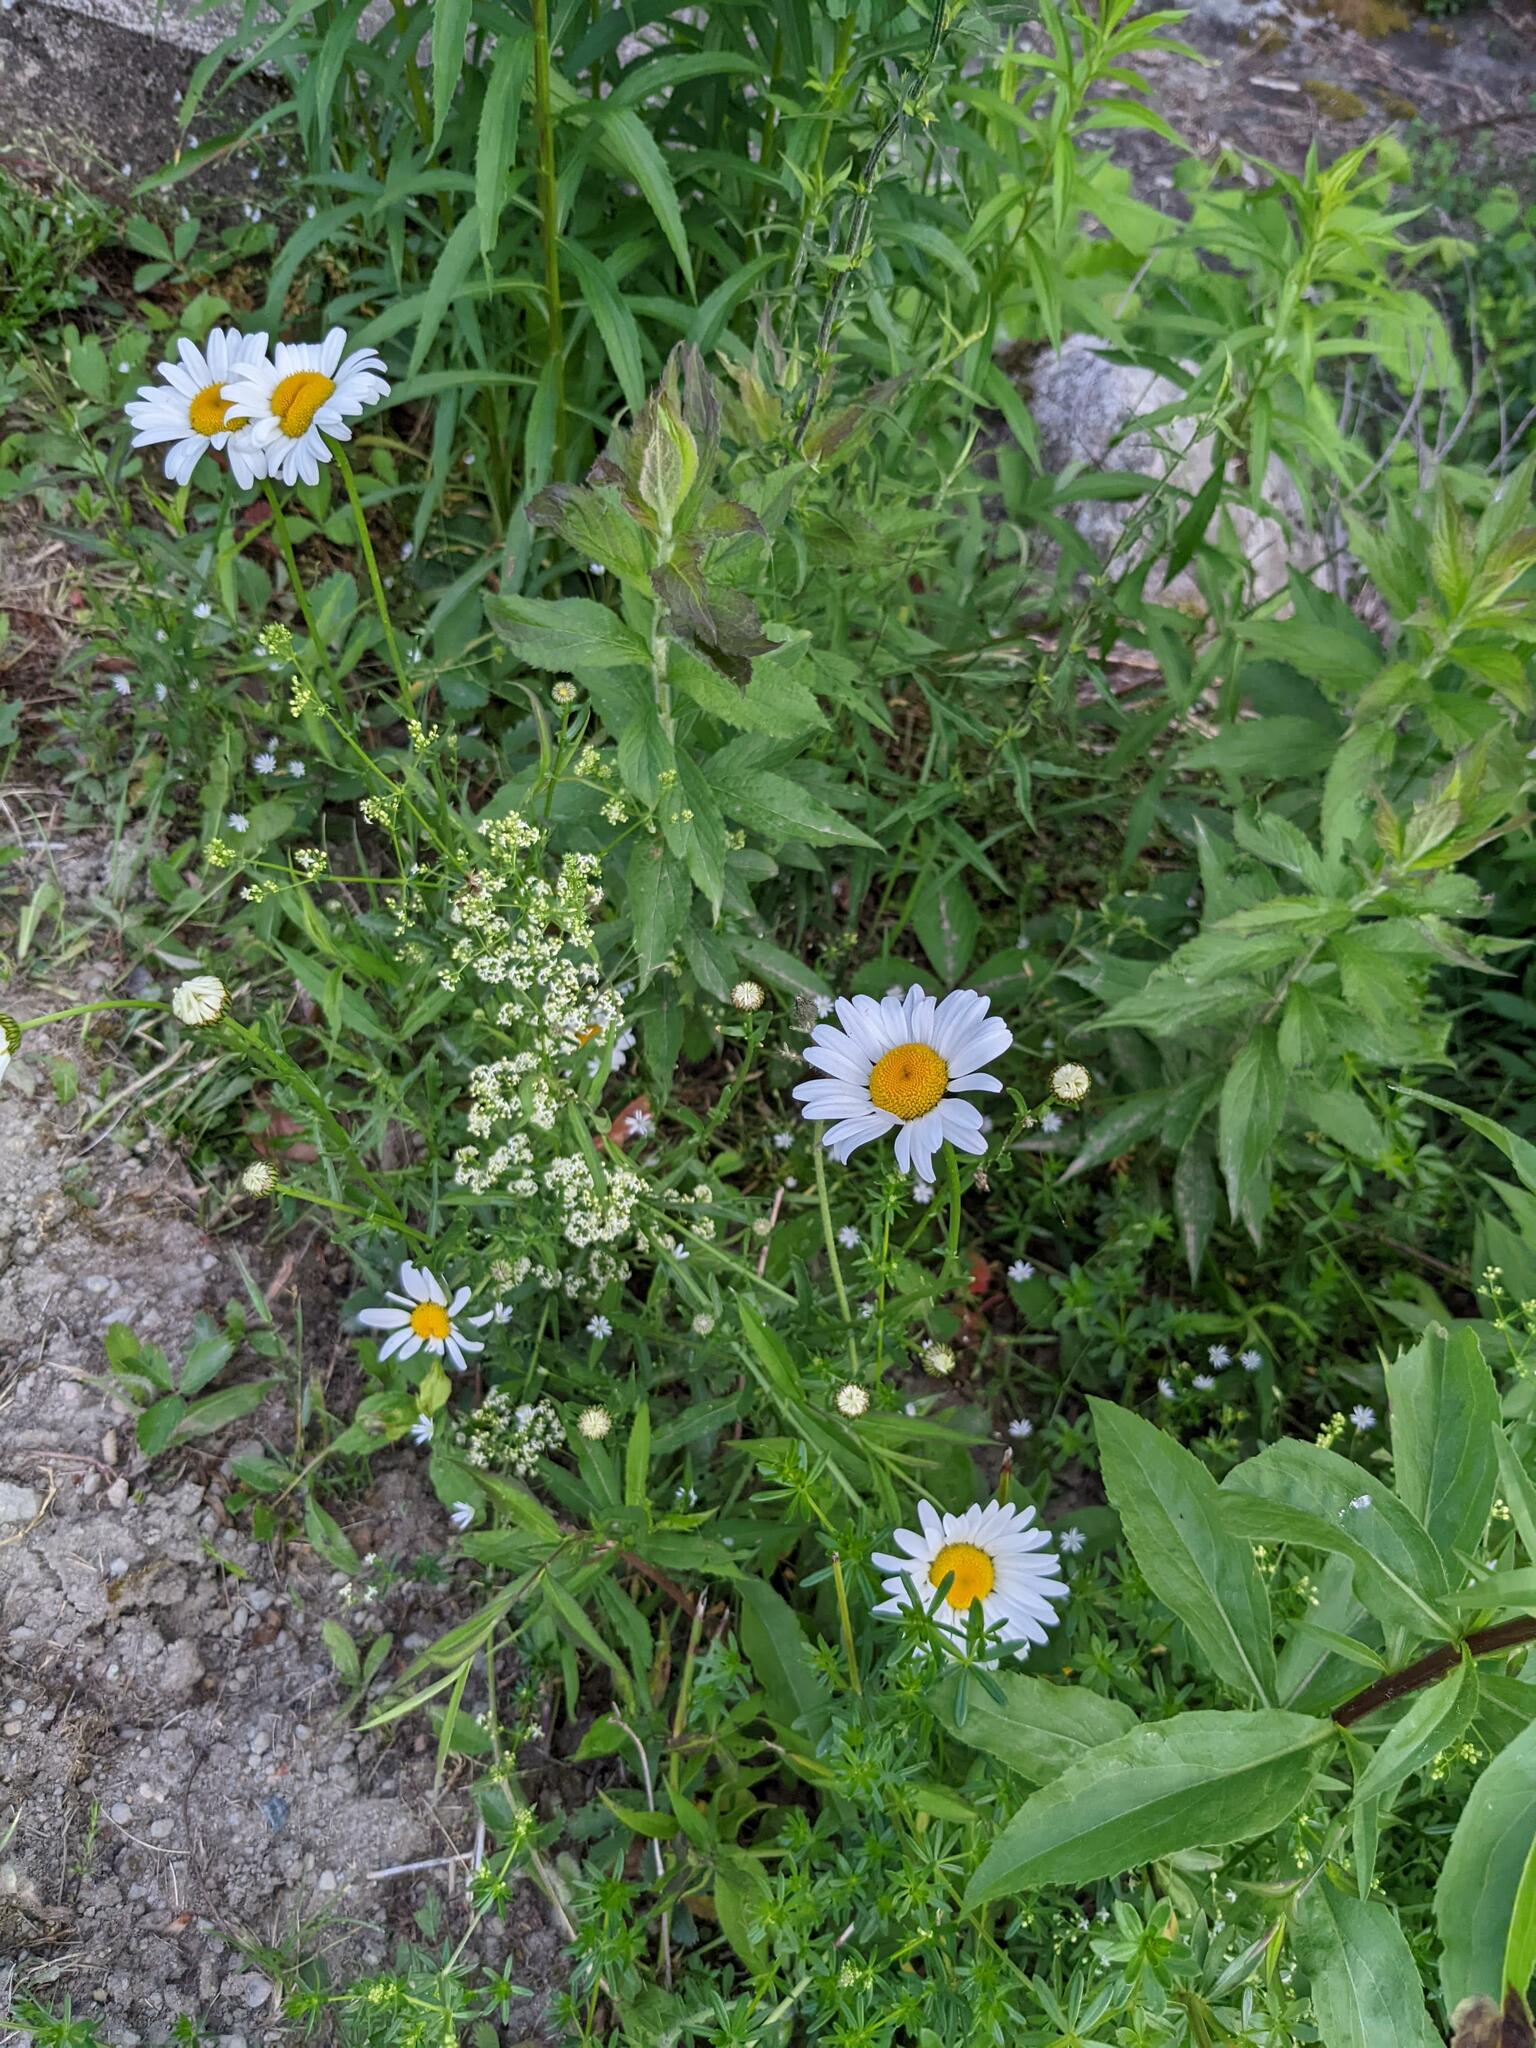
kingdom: Plantae
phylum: Tracheophyta
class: Magnoliopsida
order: Asterales
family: Asteraceae
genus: Leucanthemum
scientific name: Leucanthemum vulgare
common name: Oxeye daisy
